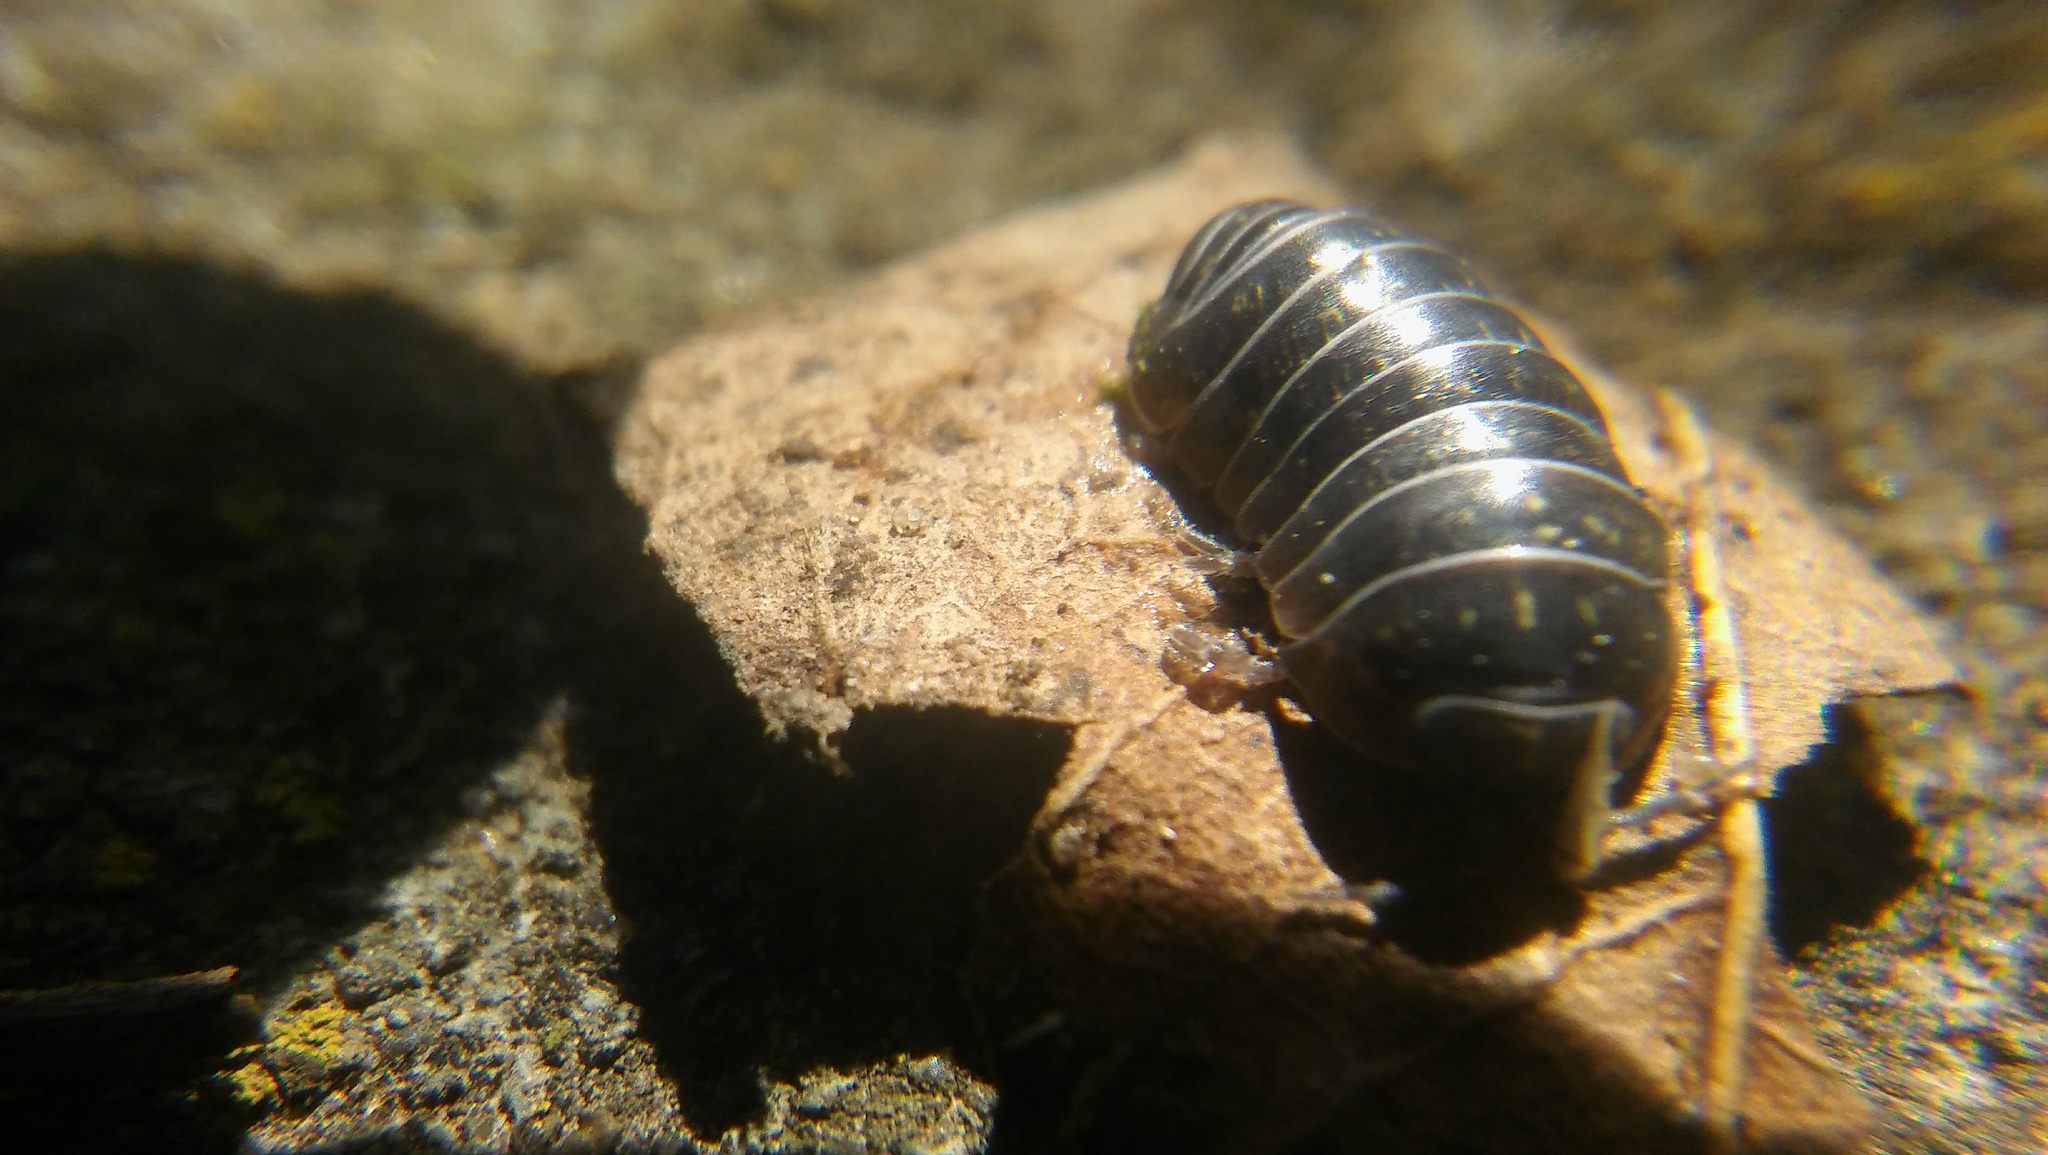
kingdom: Animalia
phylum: Arthropoda
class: Malacostraca
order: Isopoda
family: Armadillidiidae
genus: Armadillidium
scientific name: Armadillidium vulgare
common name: Common pill woodlouse
